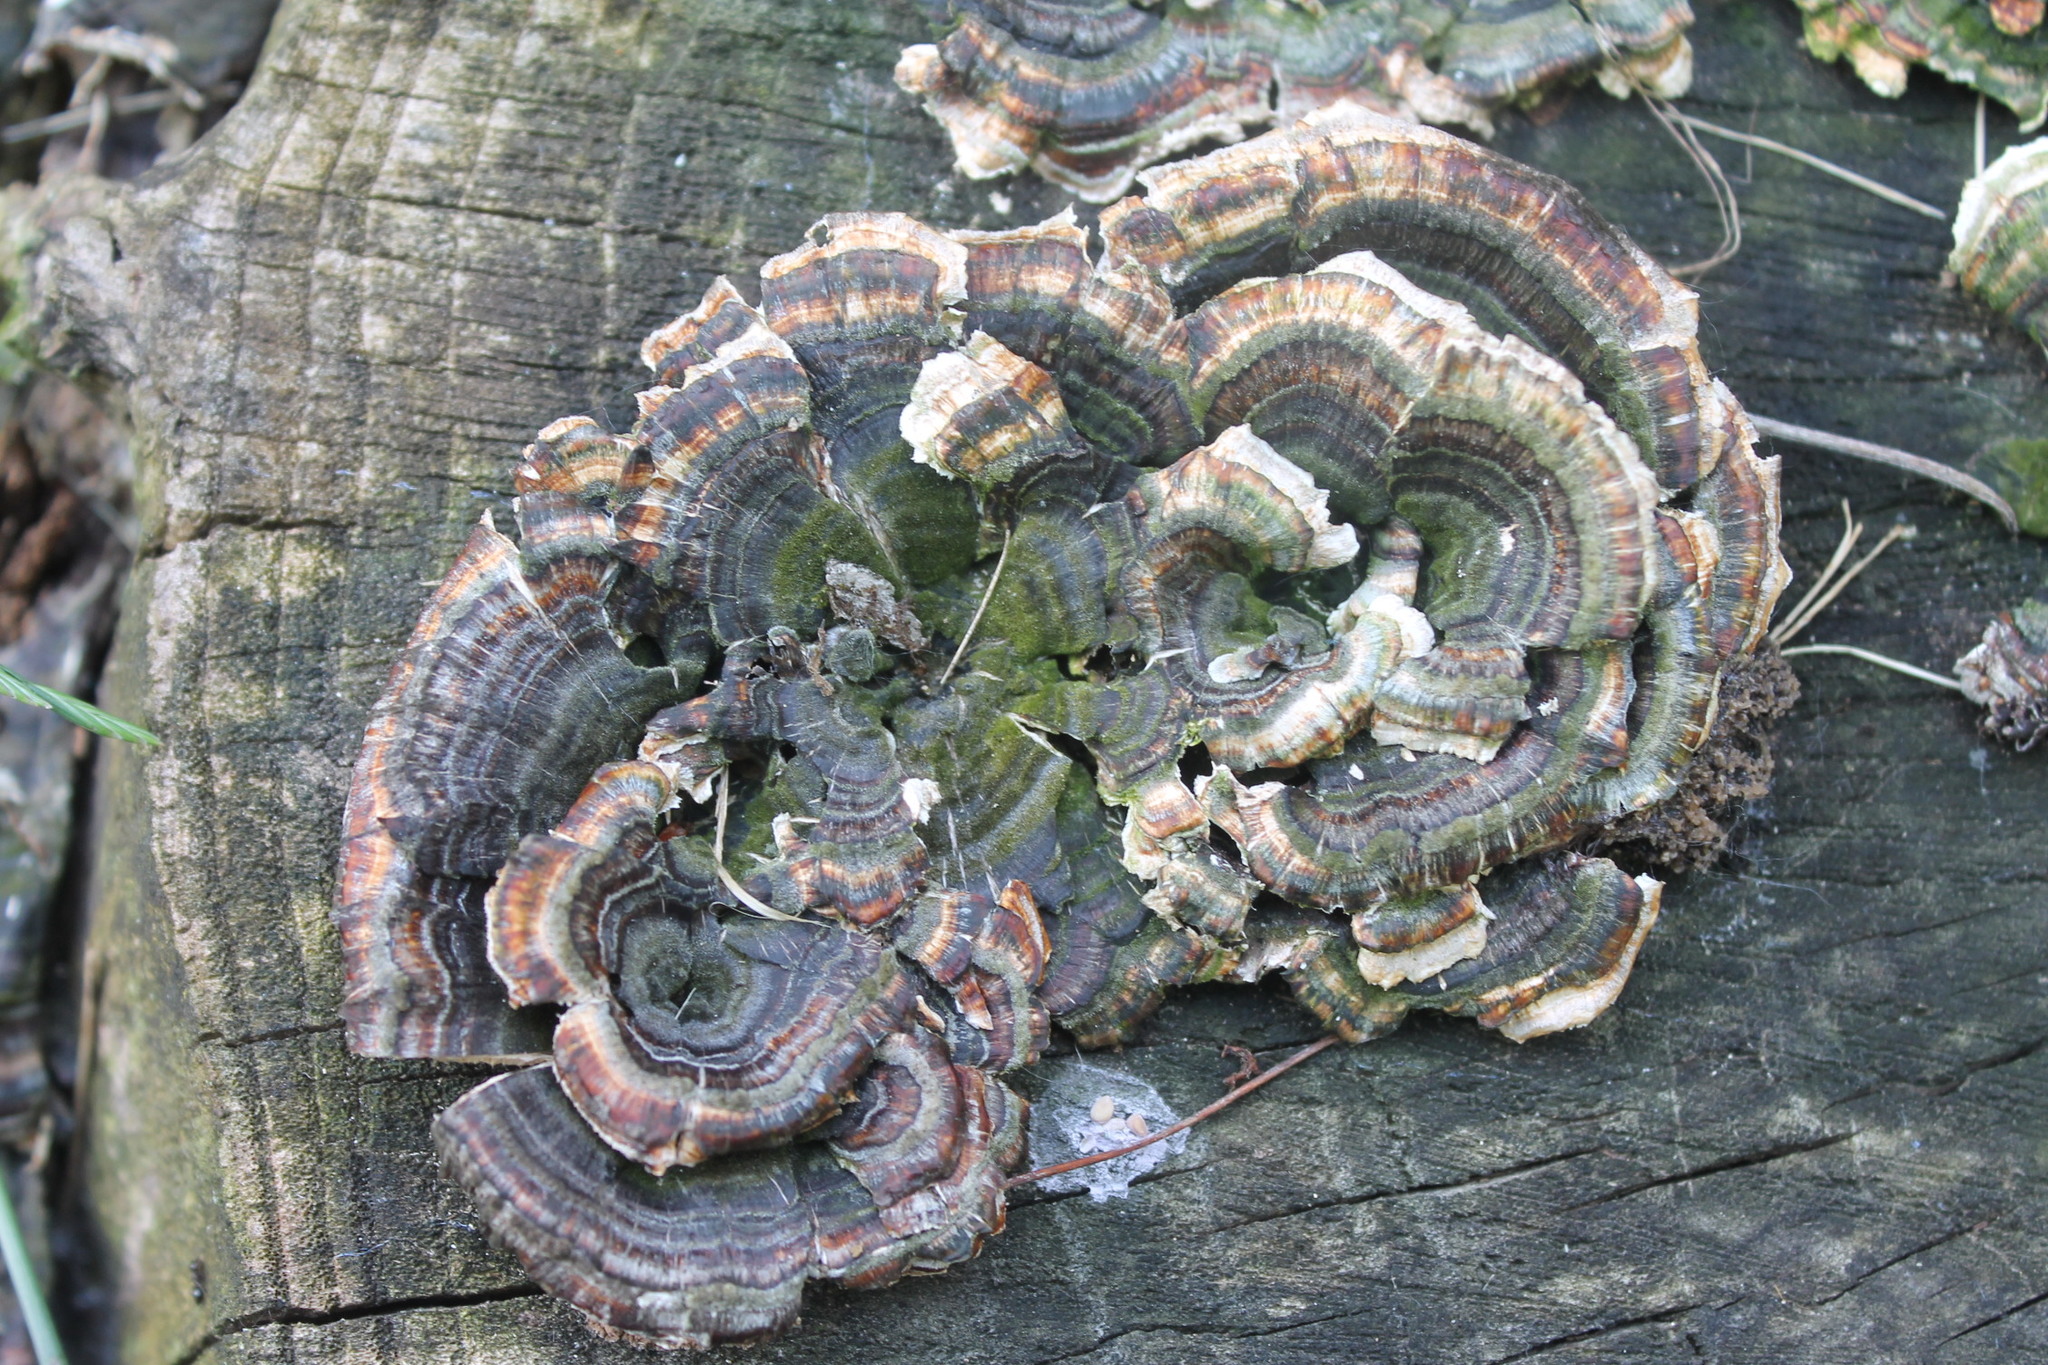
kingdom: Fungi
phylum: Basidiomycota
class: Agaricomycetes
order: Polyporales
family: Polyporaceae
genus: Trametes
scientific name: Trametes versicolor
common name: Turkeytail
